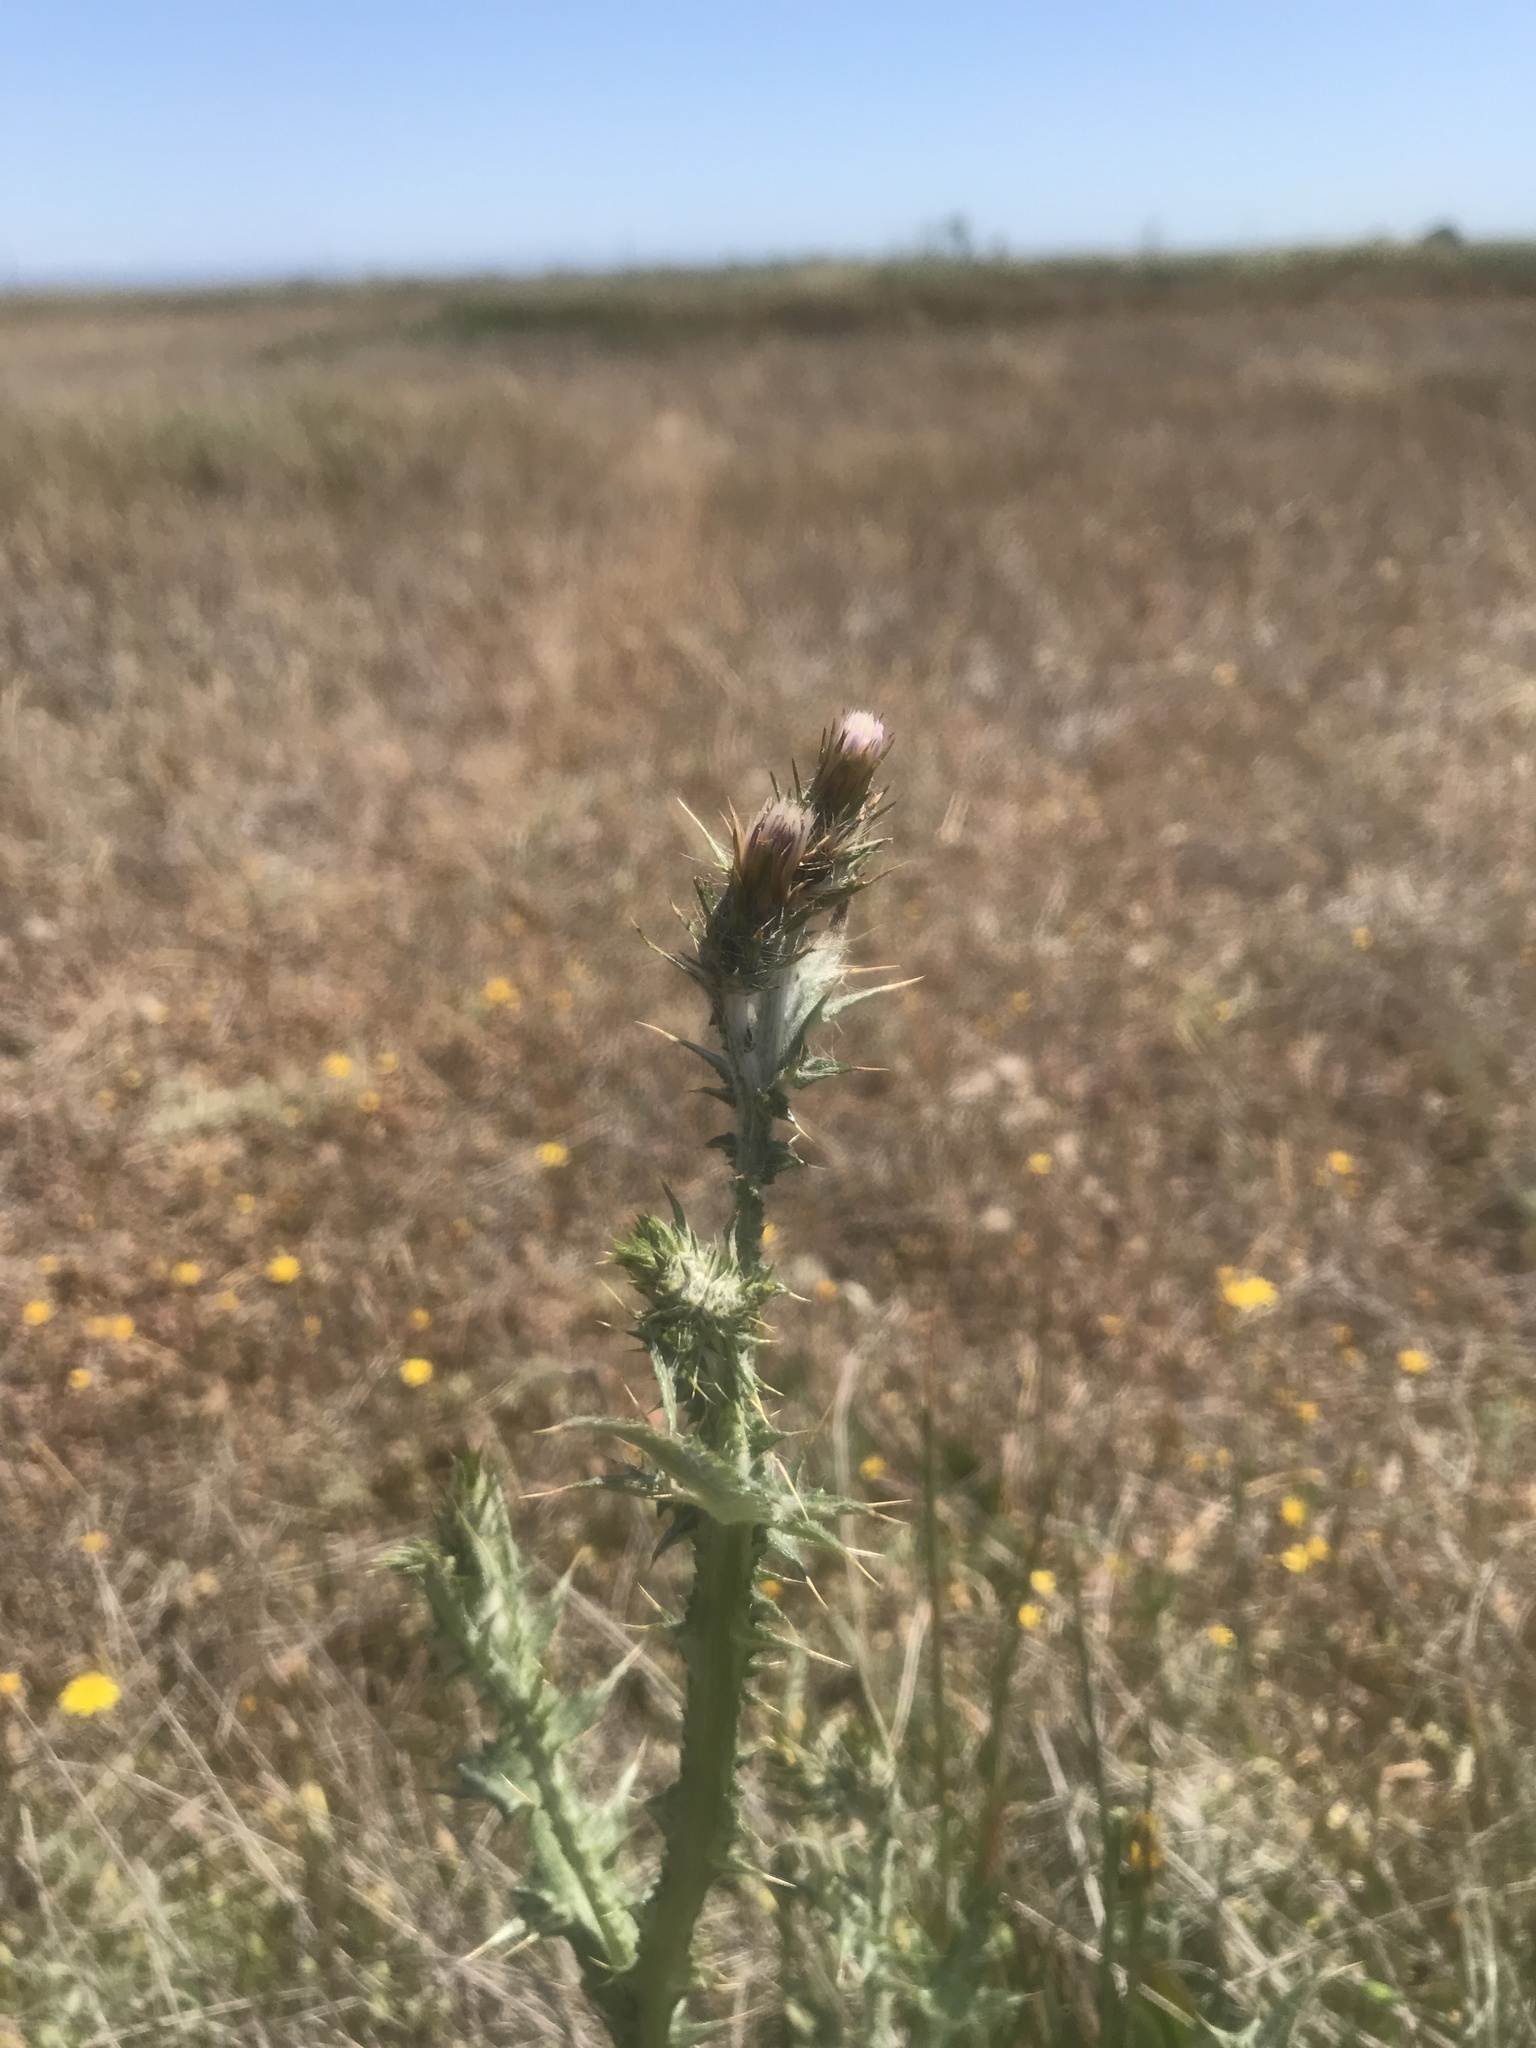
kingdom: Plantae
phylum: Tracheophyta
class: Magnoliopsida
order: Asterales
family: Asteraceae
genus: Carduus
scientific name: Carduus pycnocephalus
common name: Plymouth thistle
